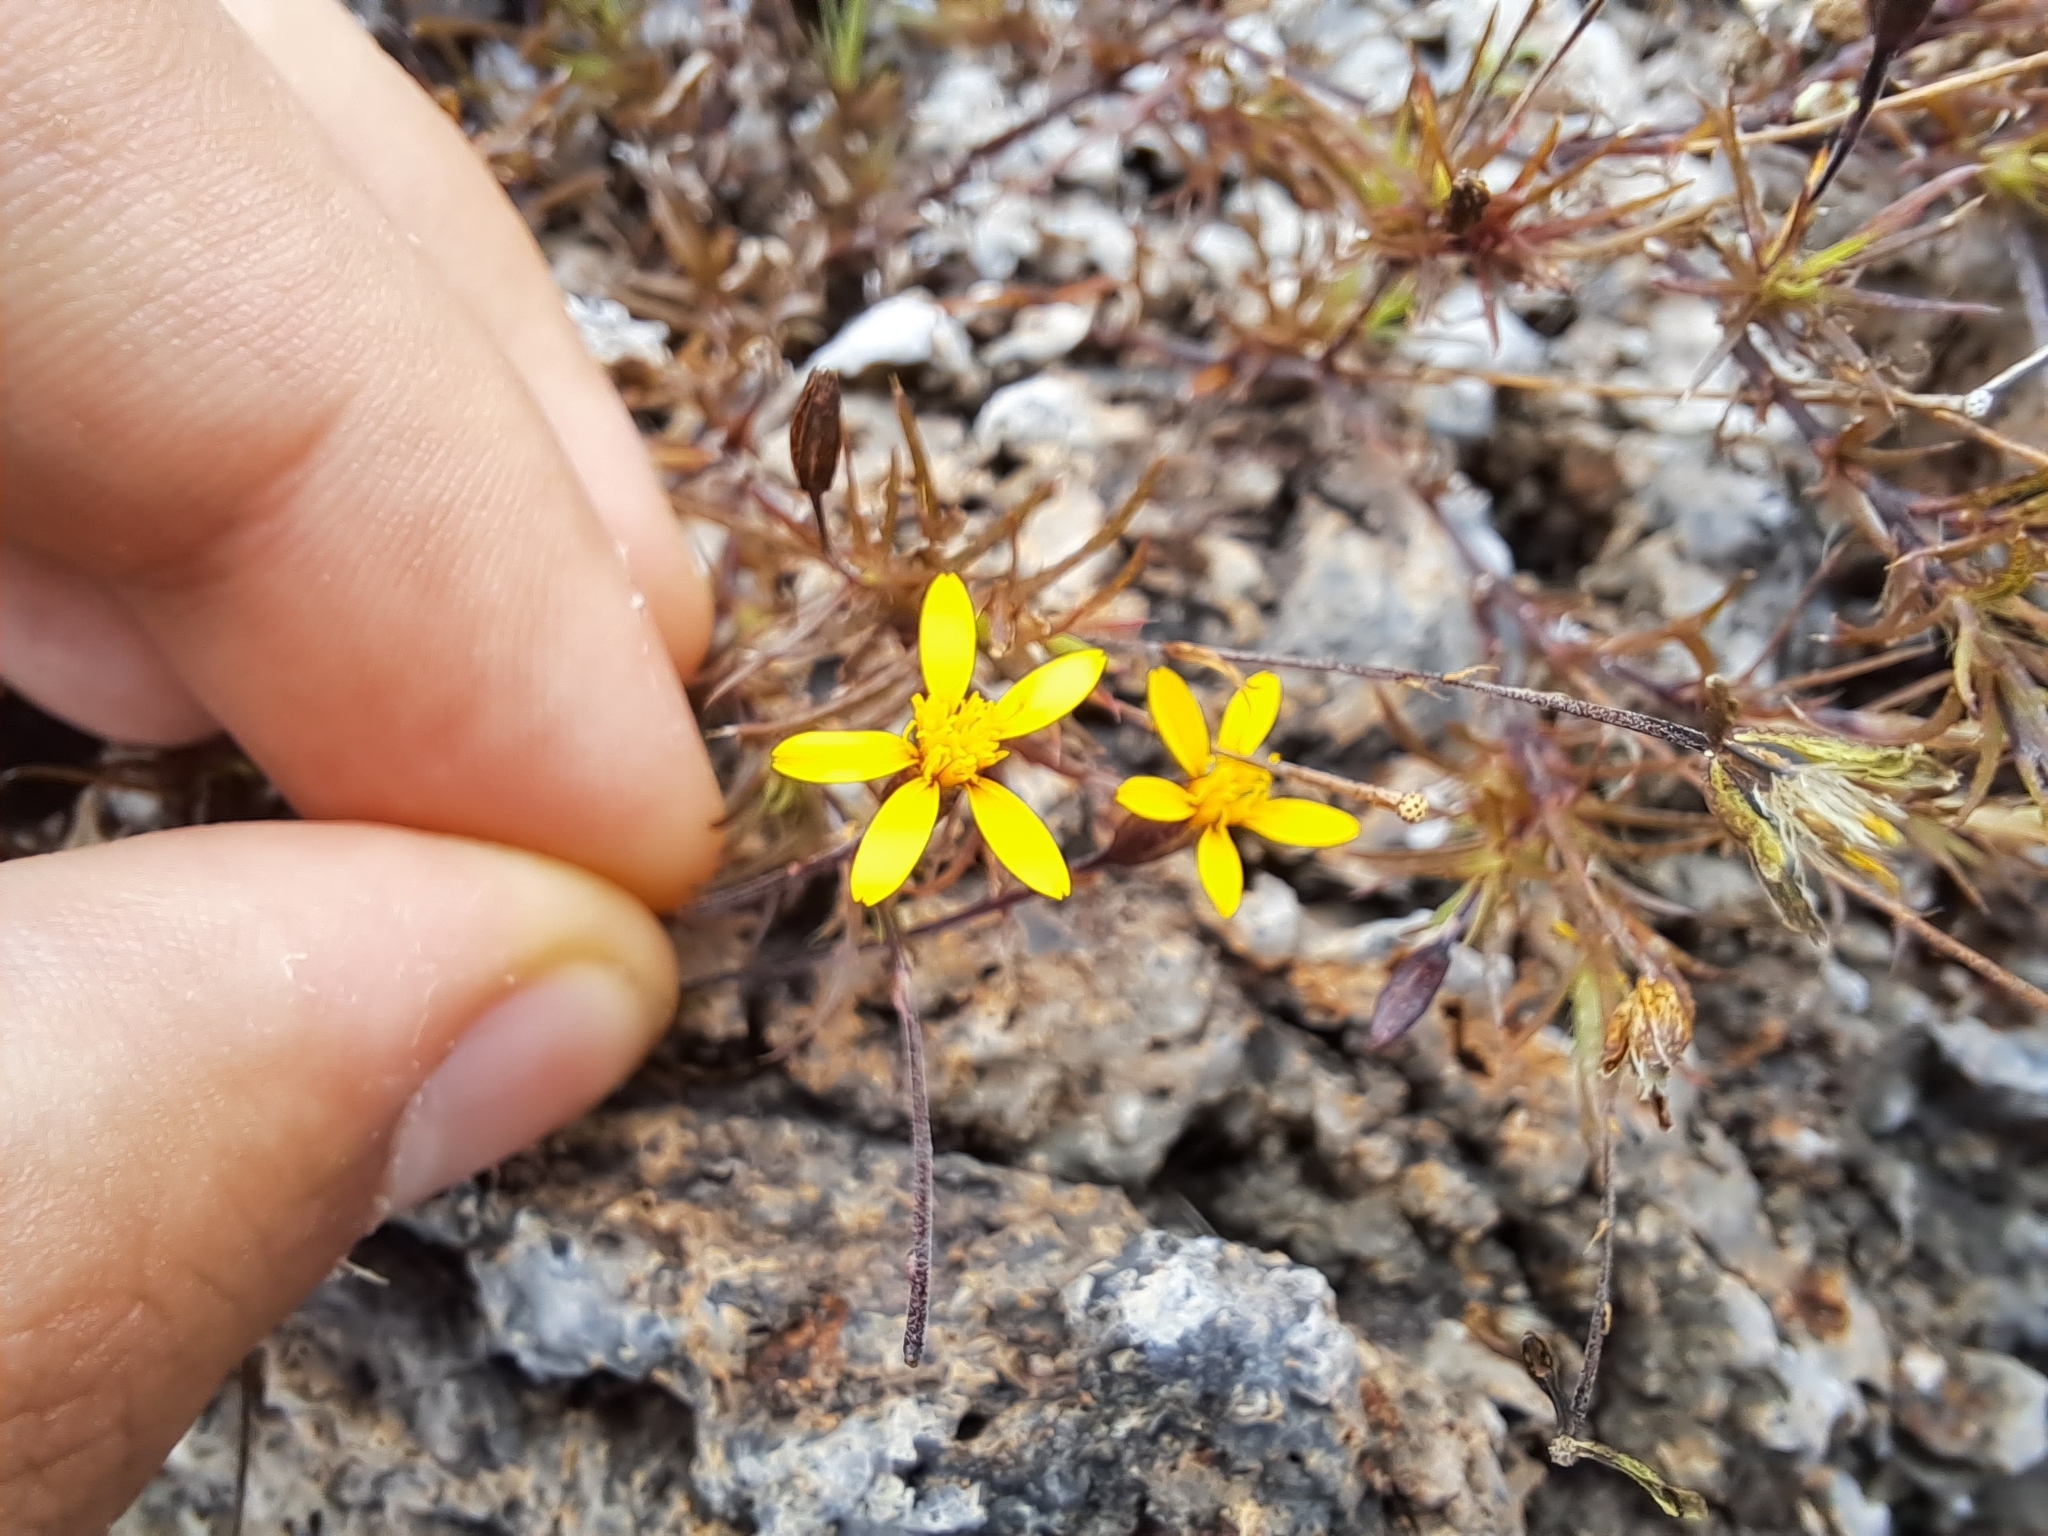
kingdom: Plantae
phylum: Tracheophyta
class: Magnoliopsida
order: Asterales
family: Asteraceae
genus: Pectis
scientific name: Pectis tenuifolia
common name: Oily pectis
